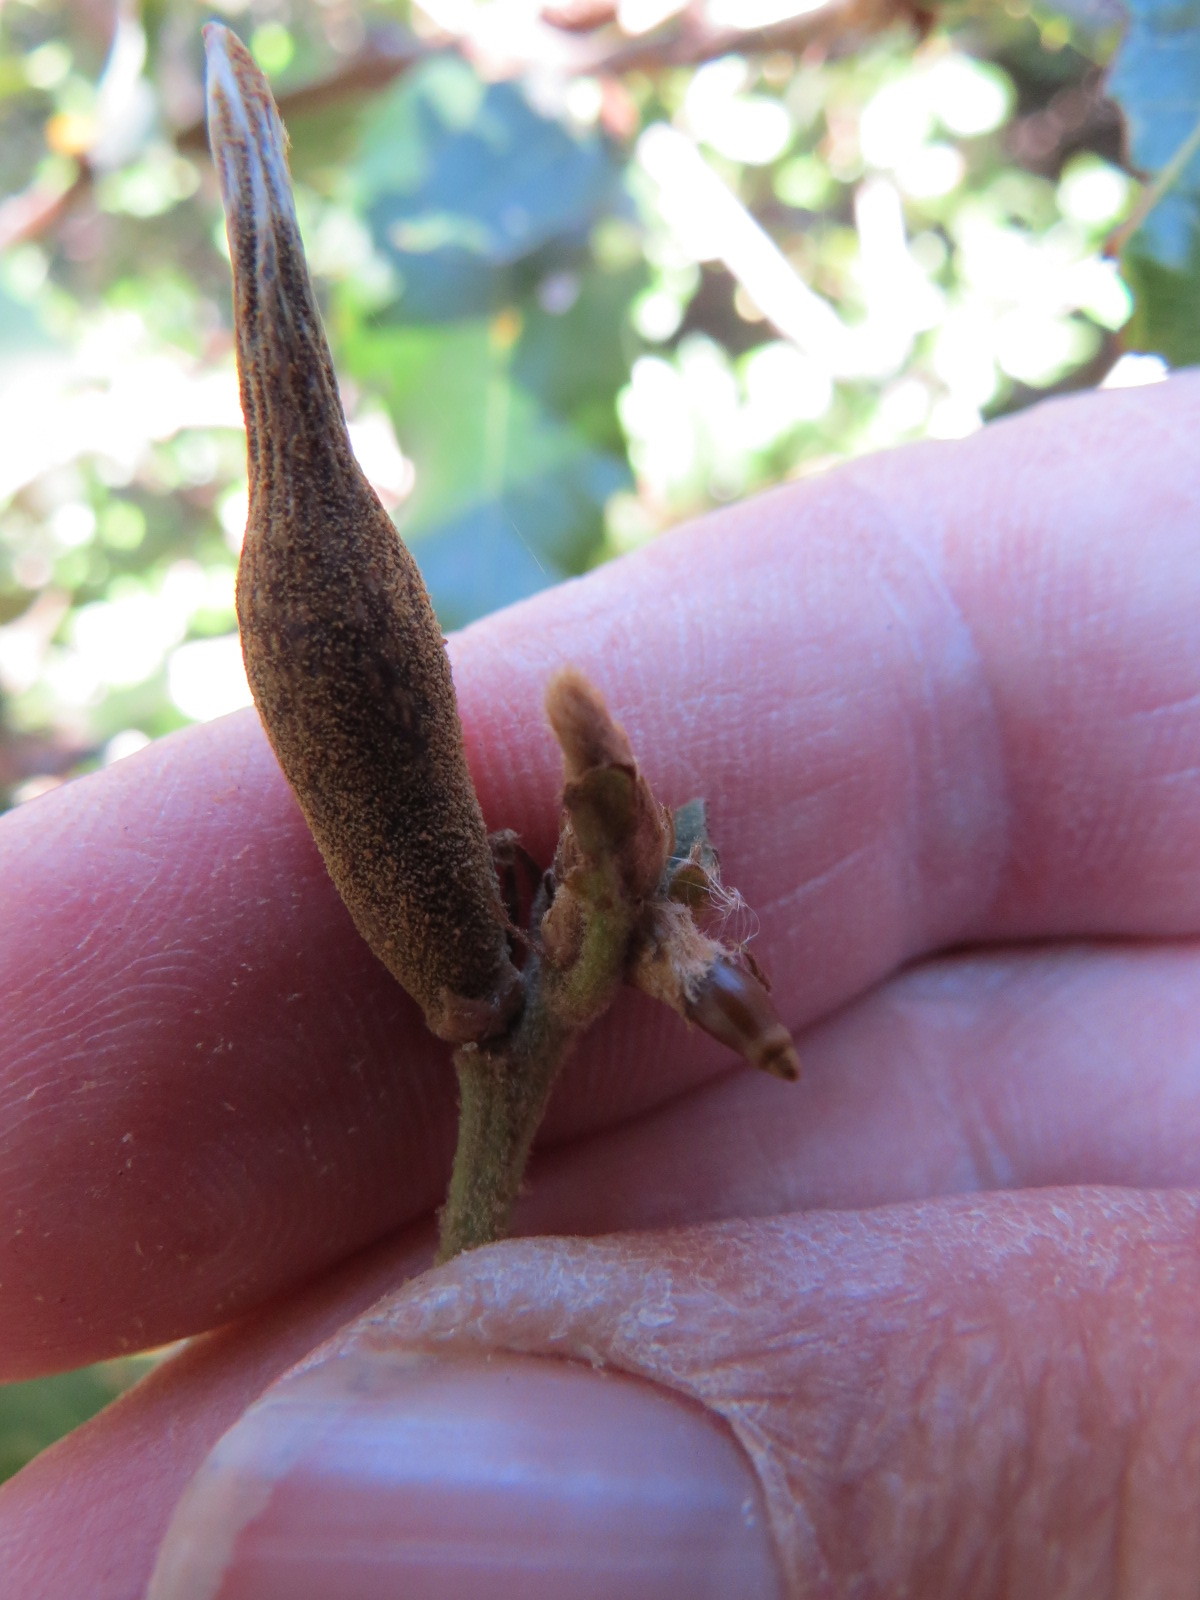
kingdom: Animalia
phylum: Arthropoda
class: Insecta
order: Hymenoptera
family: Cynipidae
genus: Heteroecus
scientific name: Heteroecus pacificus
